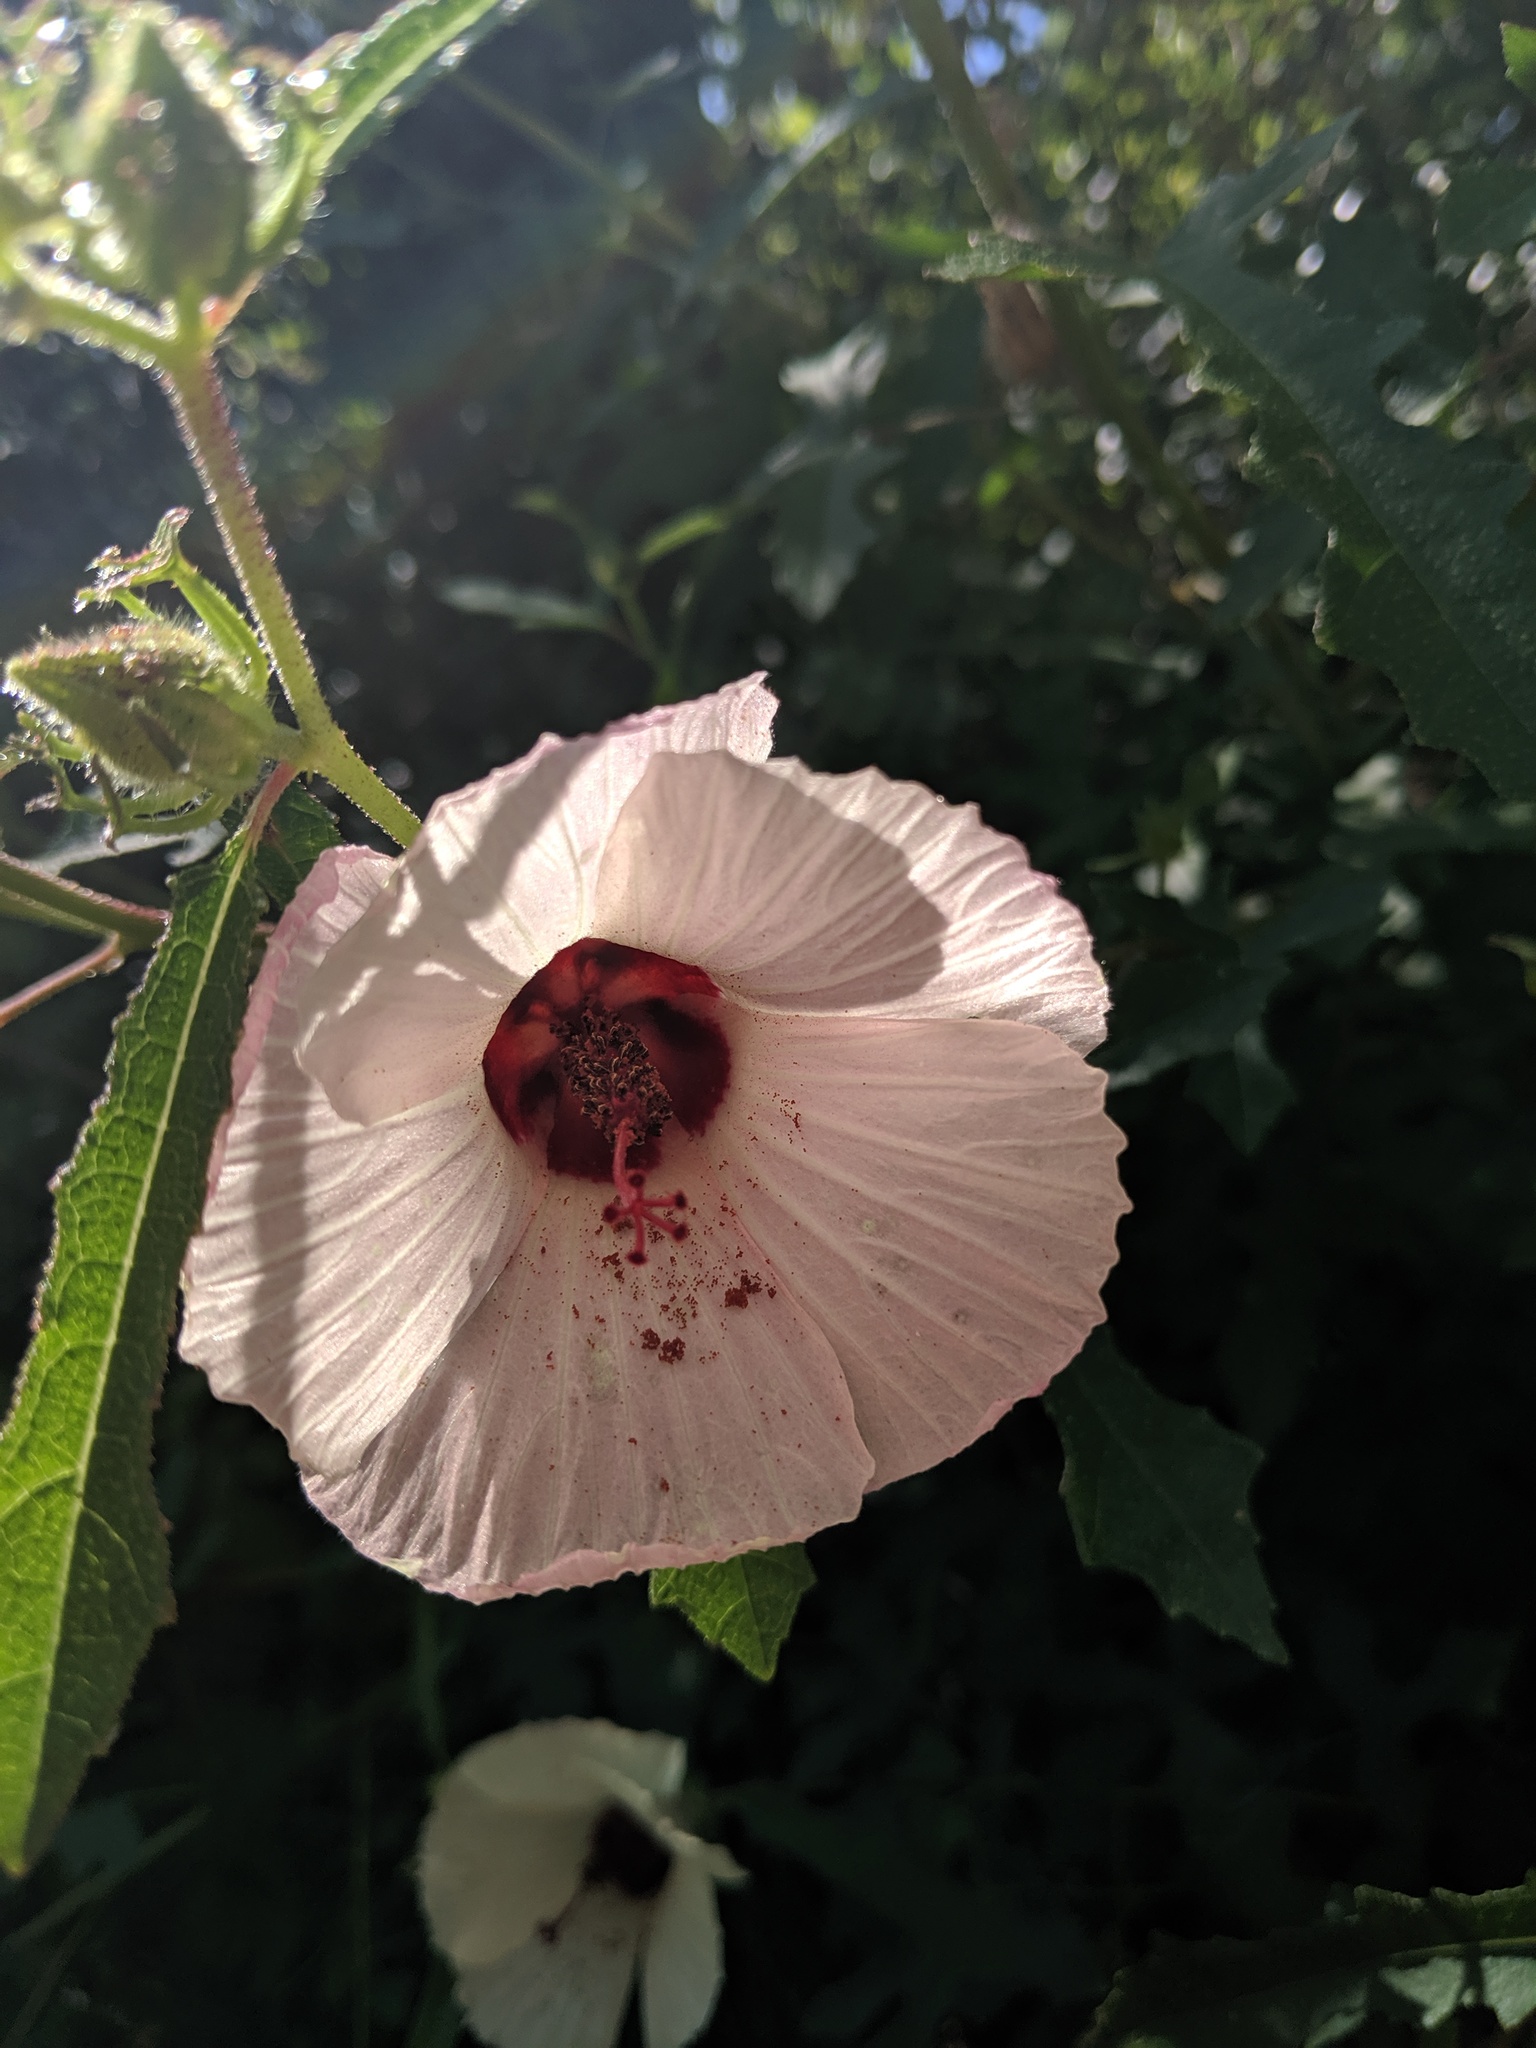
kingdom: Plantae
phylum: Tracheophyta
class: Magnoliopsida
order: Malvales
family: Malvaceae
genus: Hibiscus
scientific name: Hibiscus aculeatus
